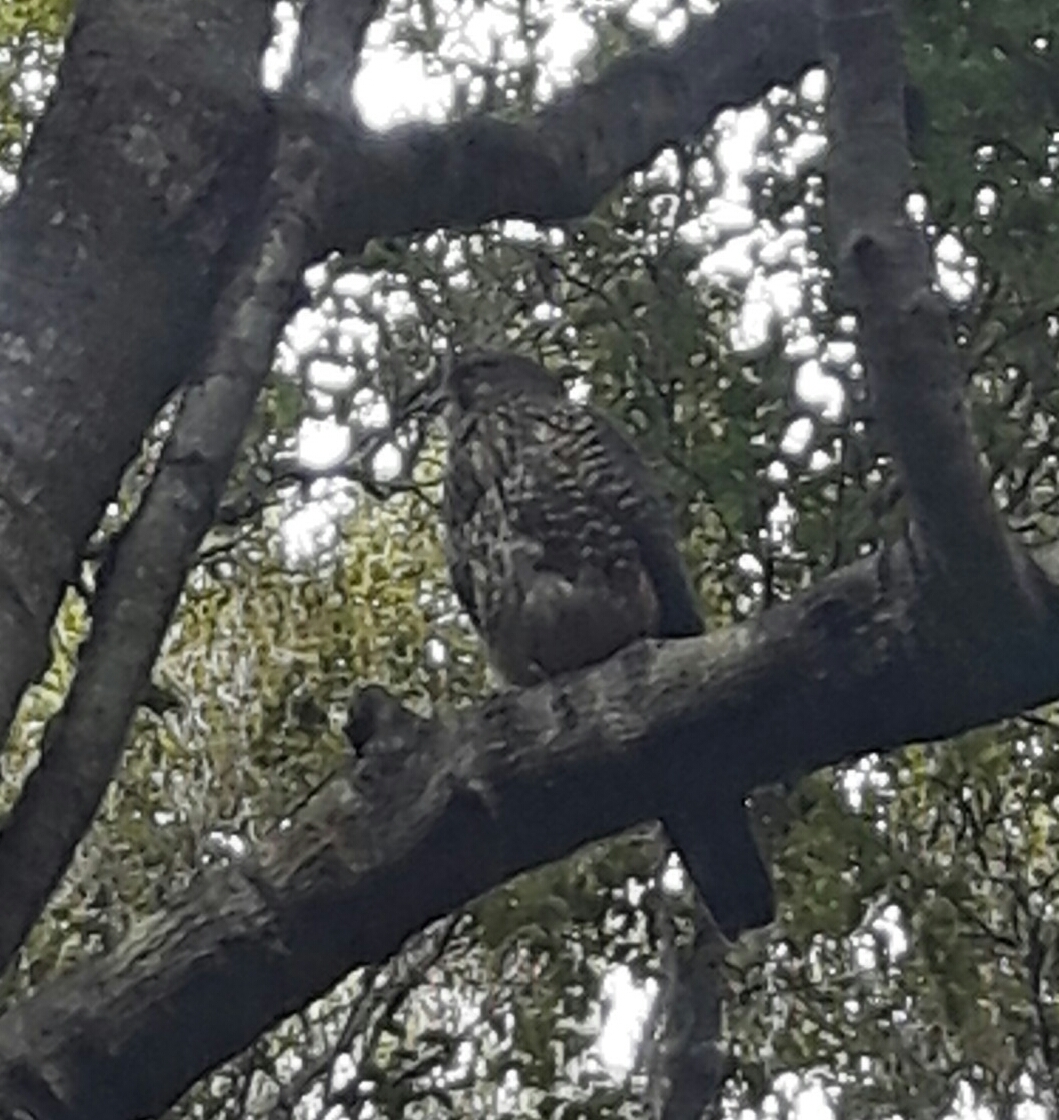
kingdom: Animalia
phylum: Chordata
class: Aves
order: Falconiformes
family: Falconidae
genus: Falco
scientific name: Falco novaeseelandiae
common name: New zealand falcon
